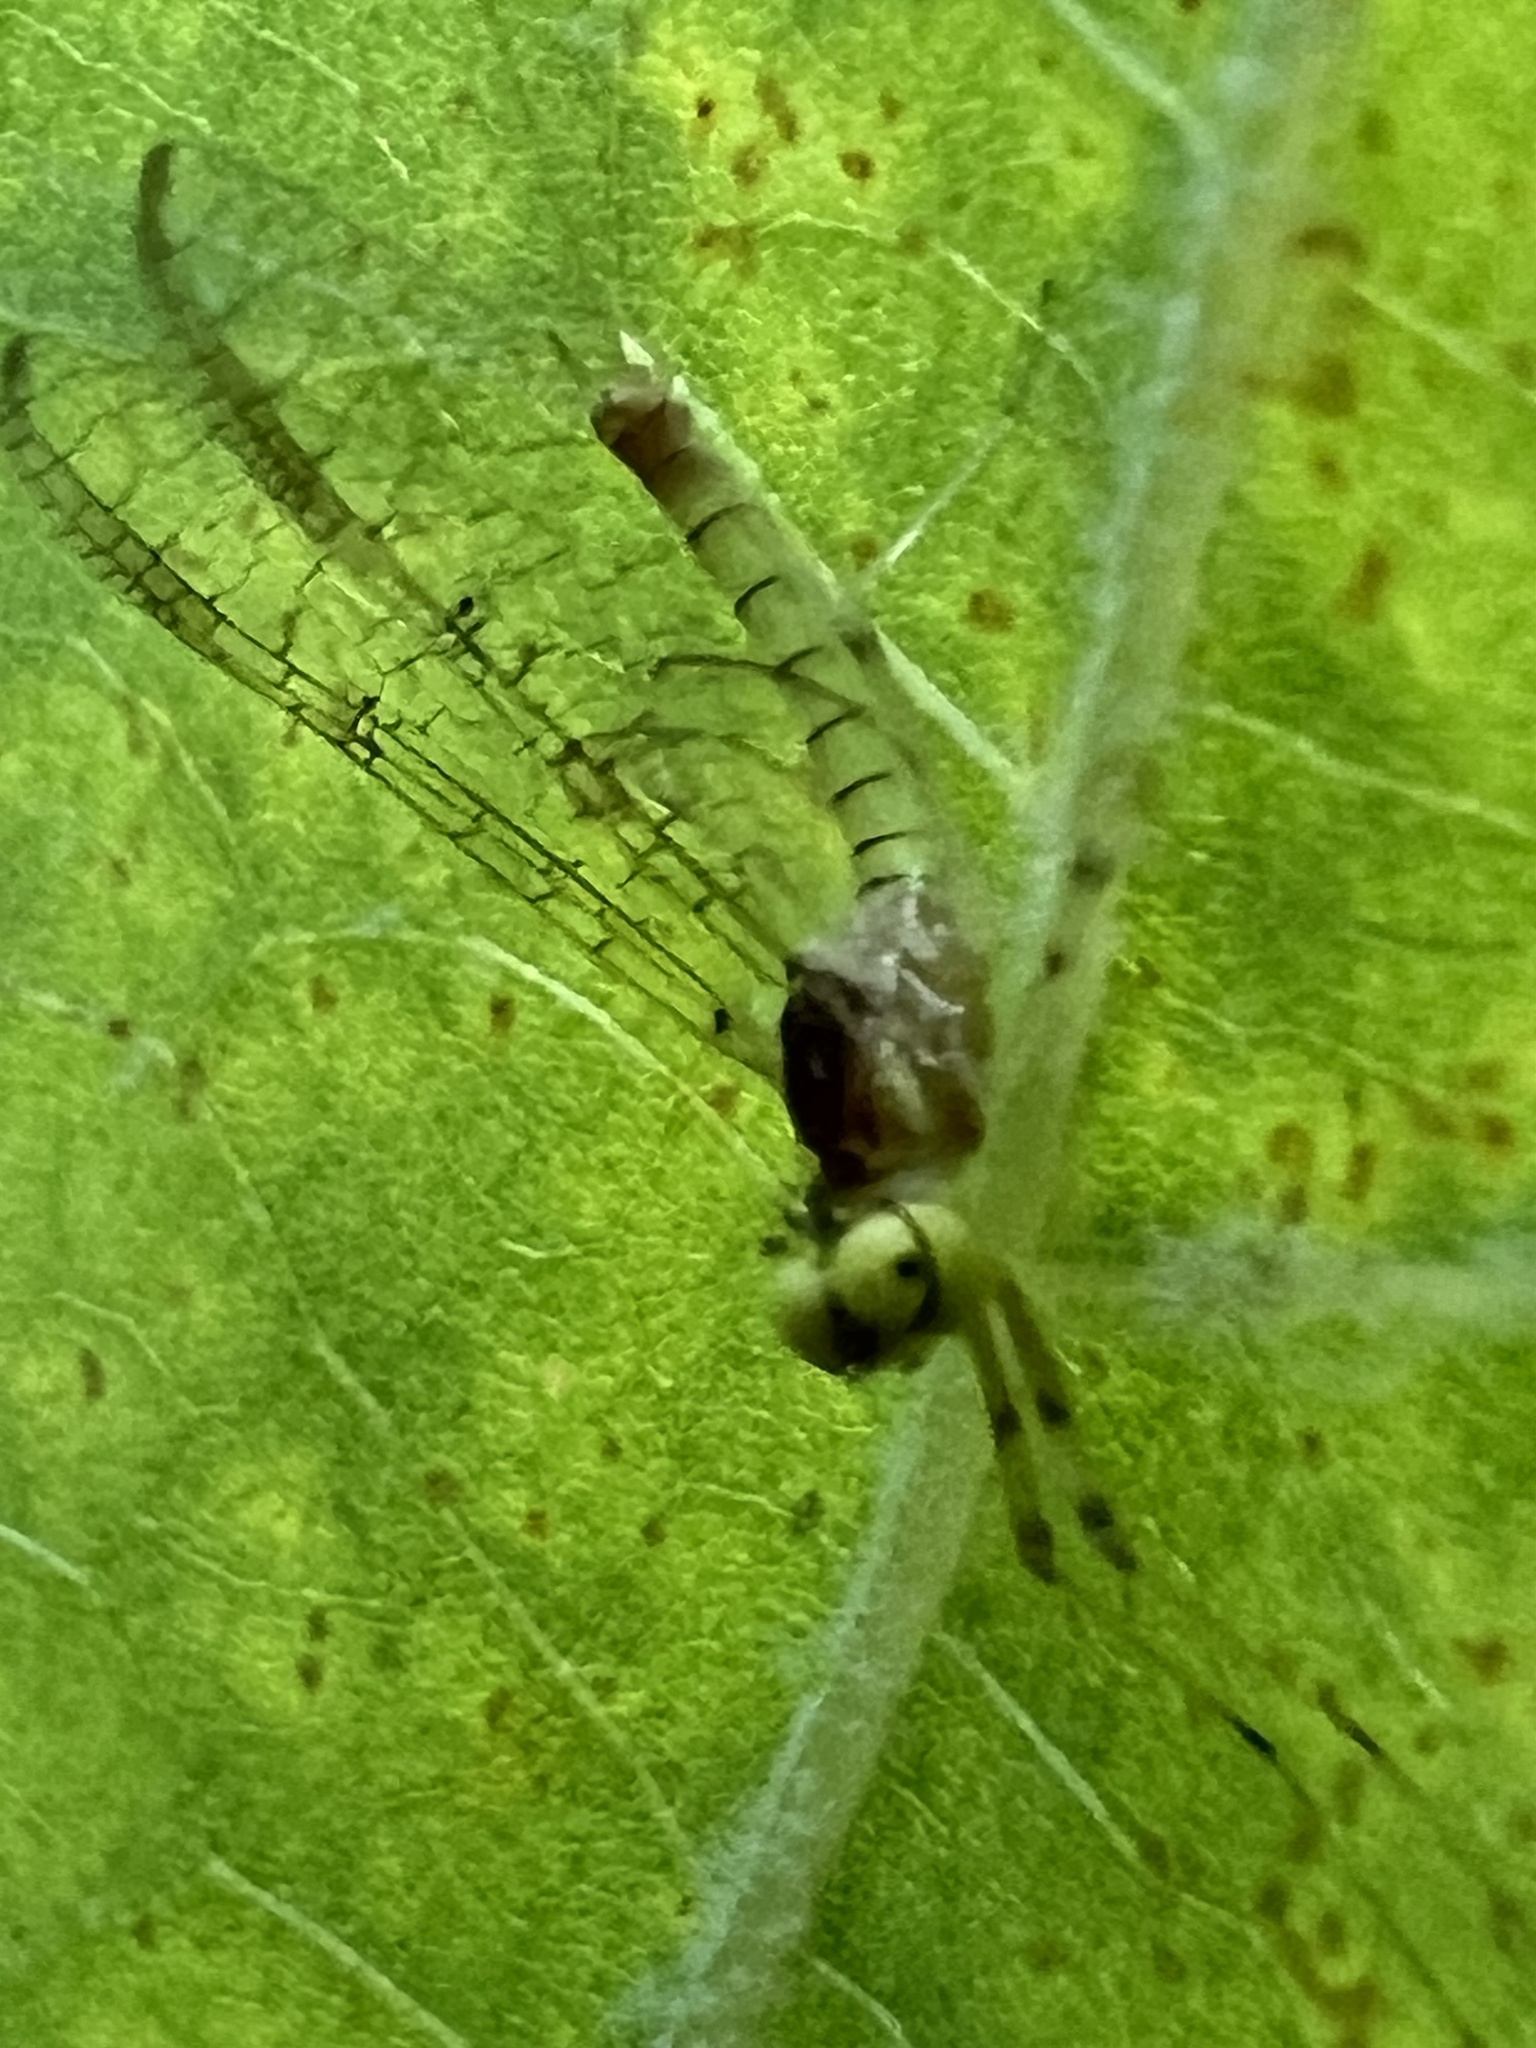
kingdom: Animalia
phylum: Arthropoda
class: Insecta
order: Ephemeroptera
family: Heptageniidae
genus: Stenacron
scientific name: Stenacron interpunctatum
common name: Orange cahill
